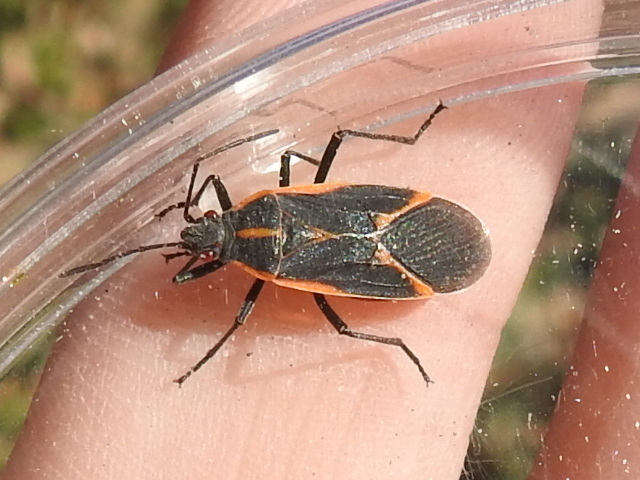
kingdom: Animalia
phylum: Arthropoda
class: Insecta
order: Hemiptera
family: Rhopalidae
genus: Boisea
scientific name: Boisea trivittata
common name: Boxelder bug
